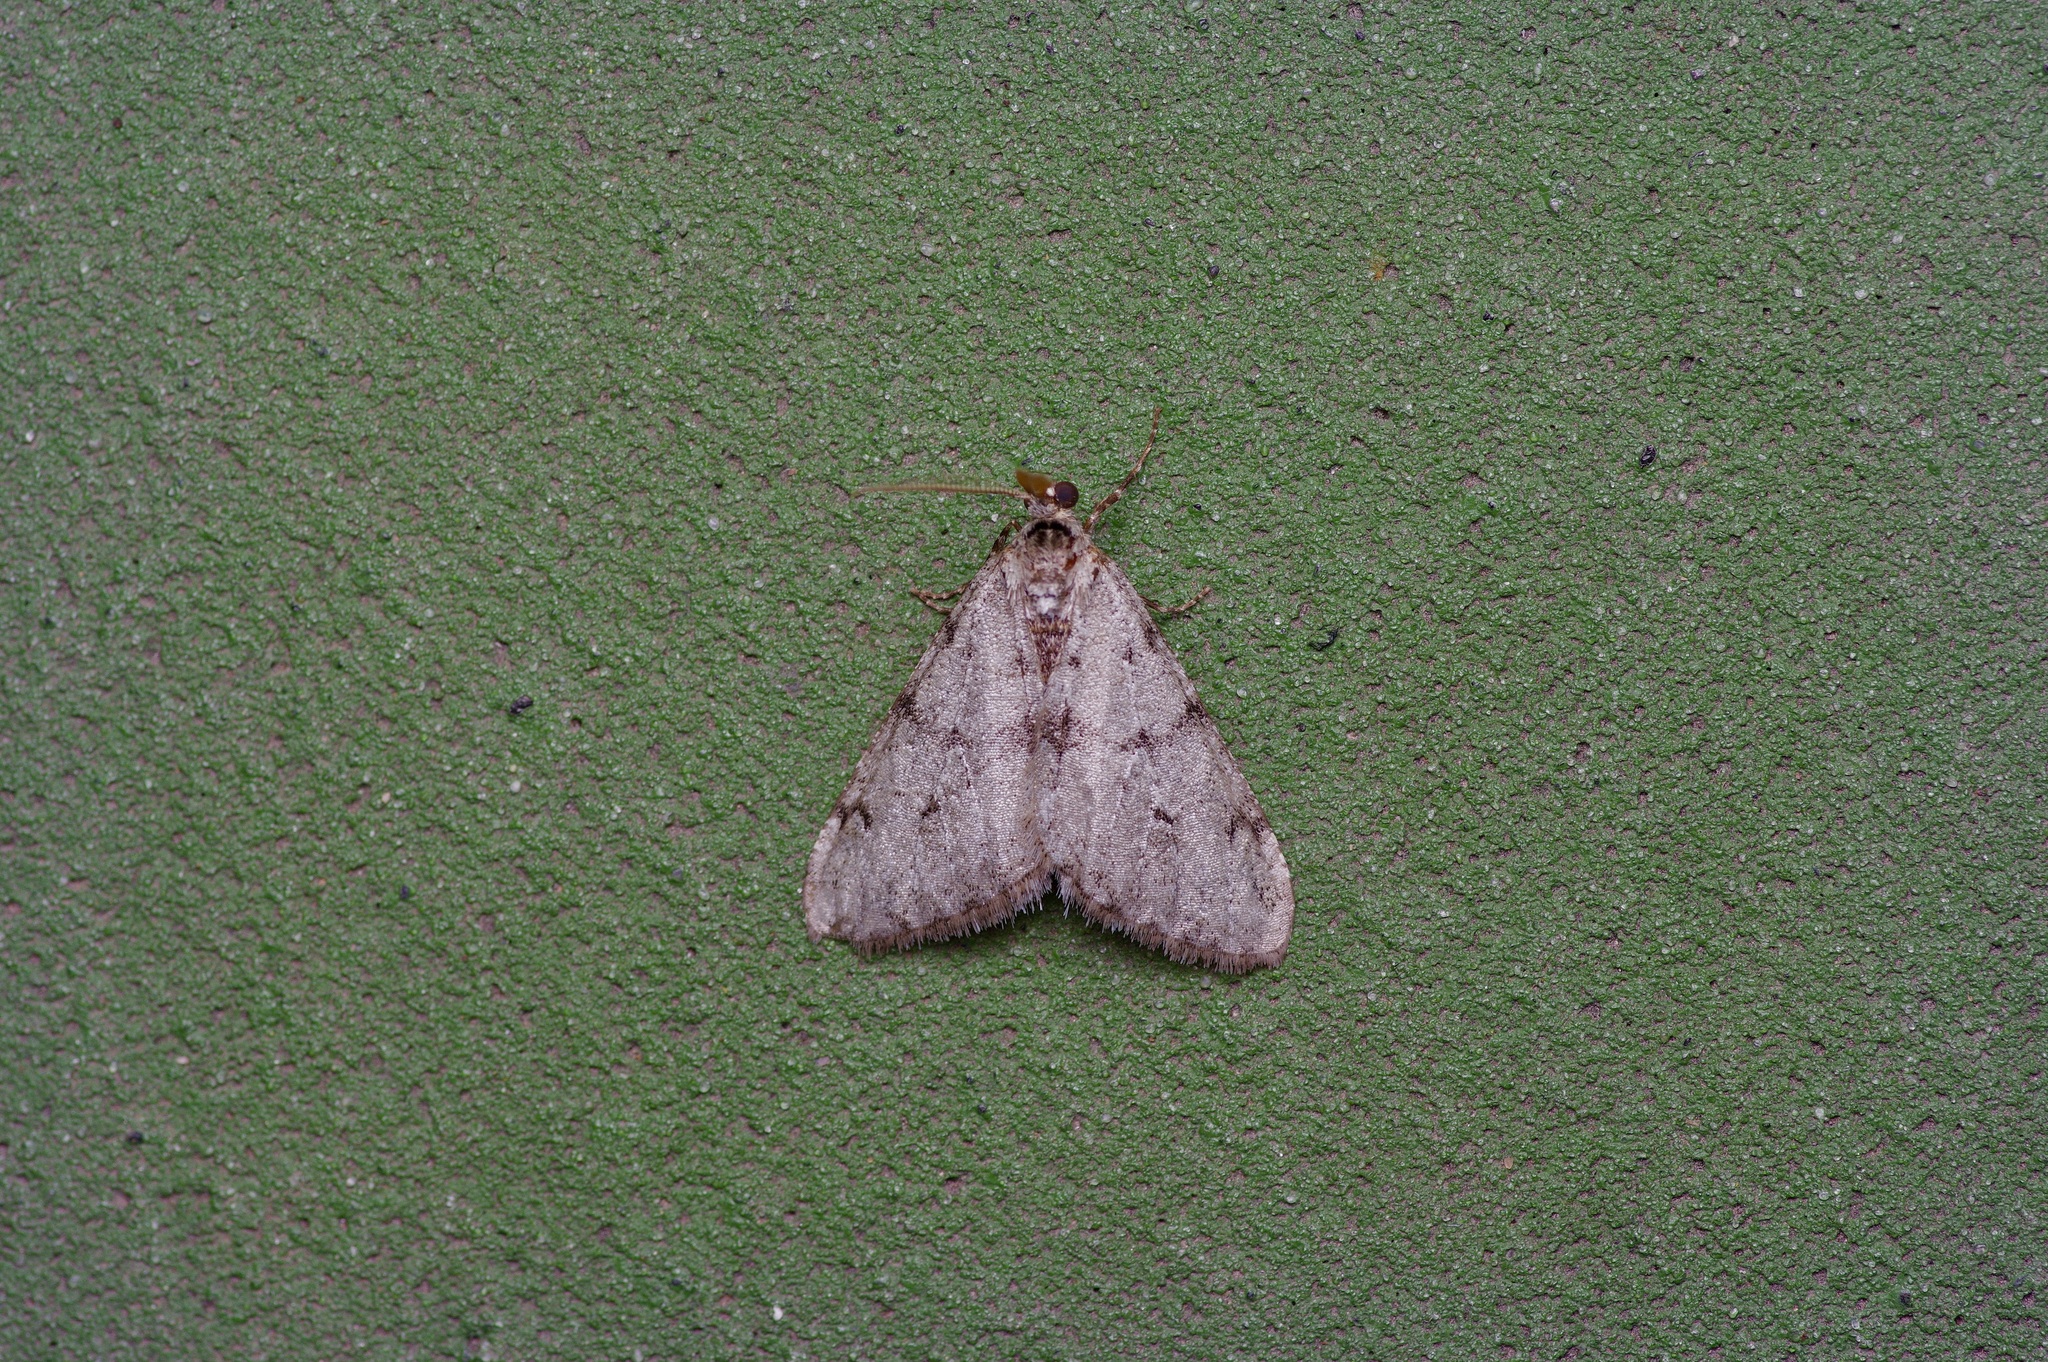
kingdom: Animalia
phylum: Arthropoda
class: Insecta
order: Lepidoptera
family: Geometridae
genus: Phigalia
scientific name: Phigalia strigataria
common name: Small phigalia
